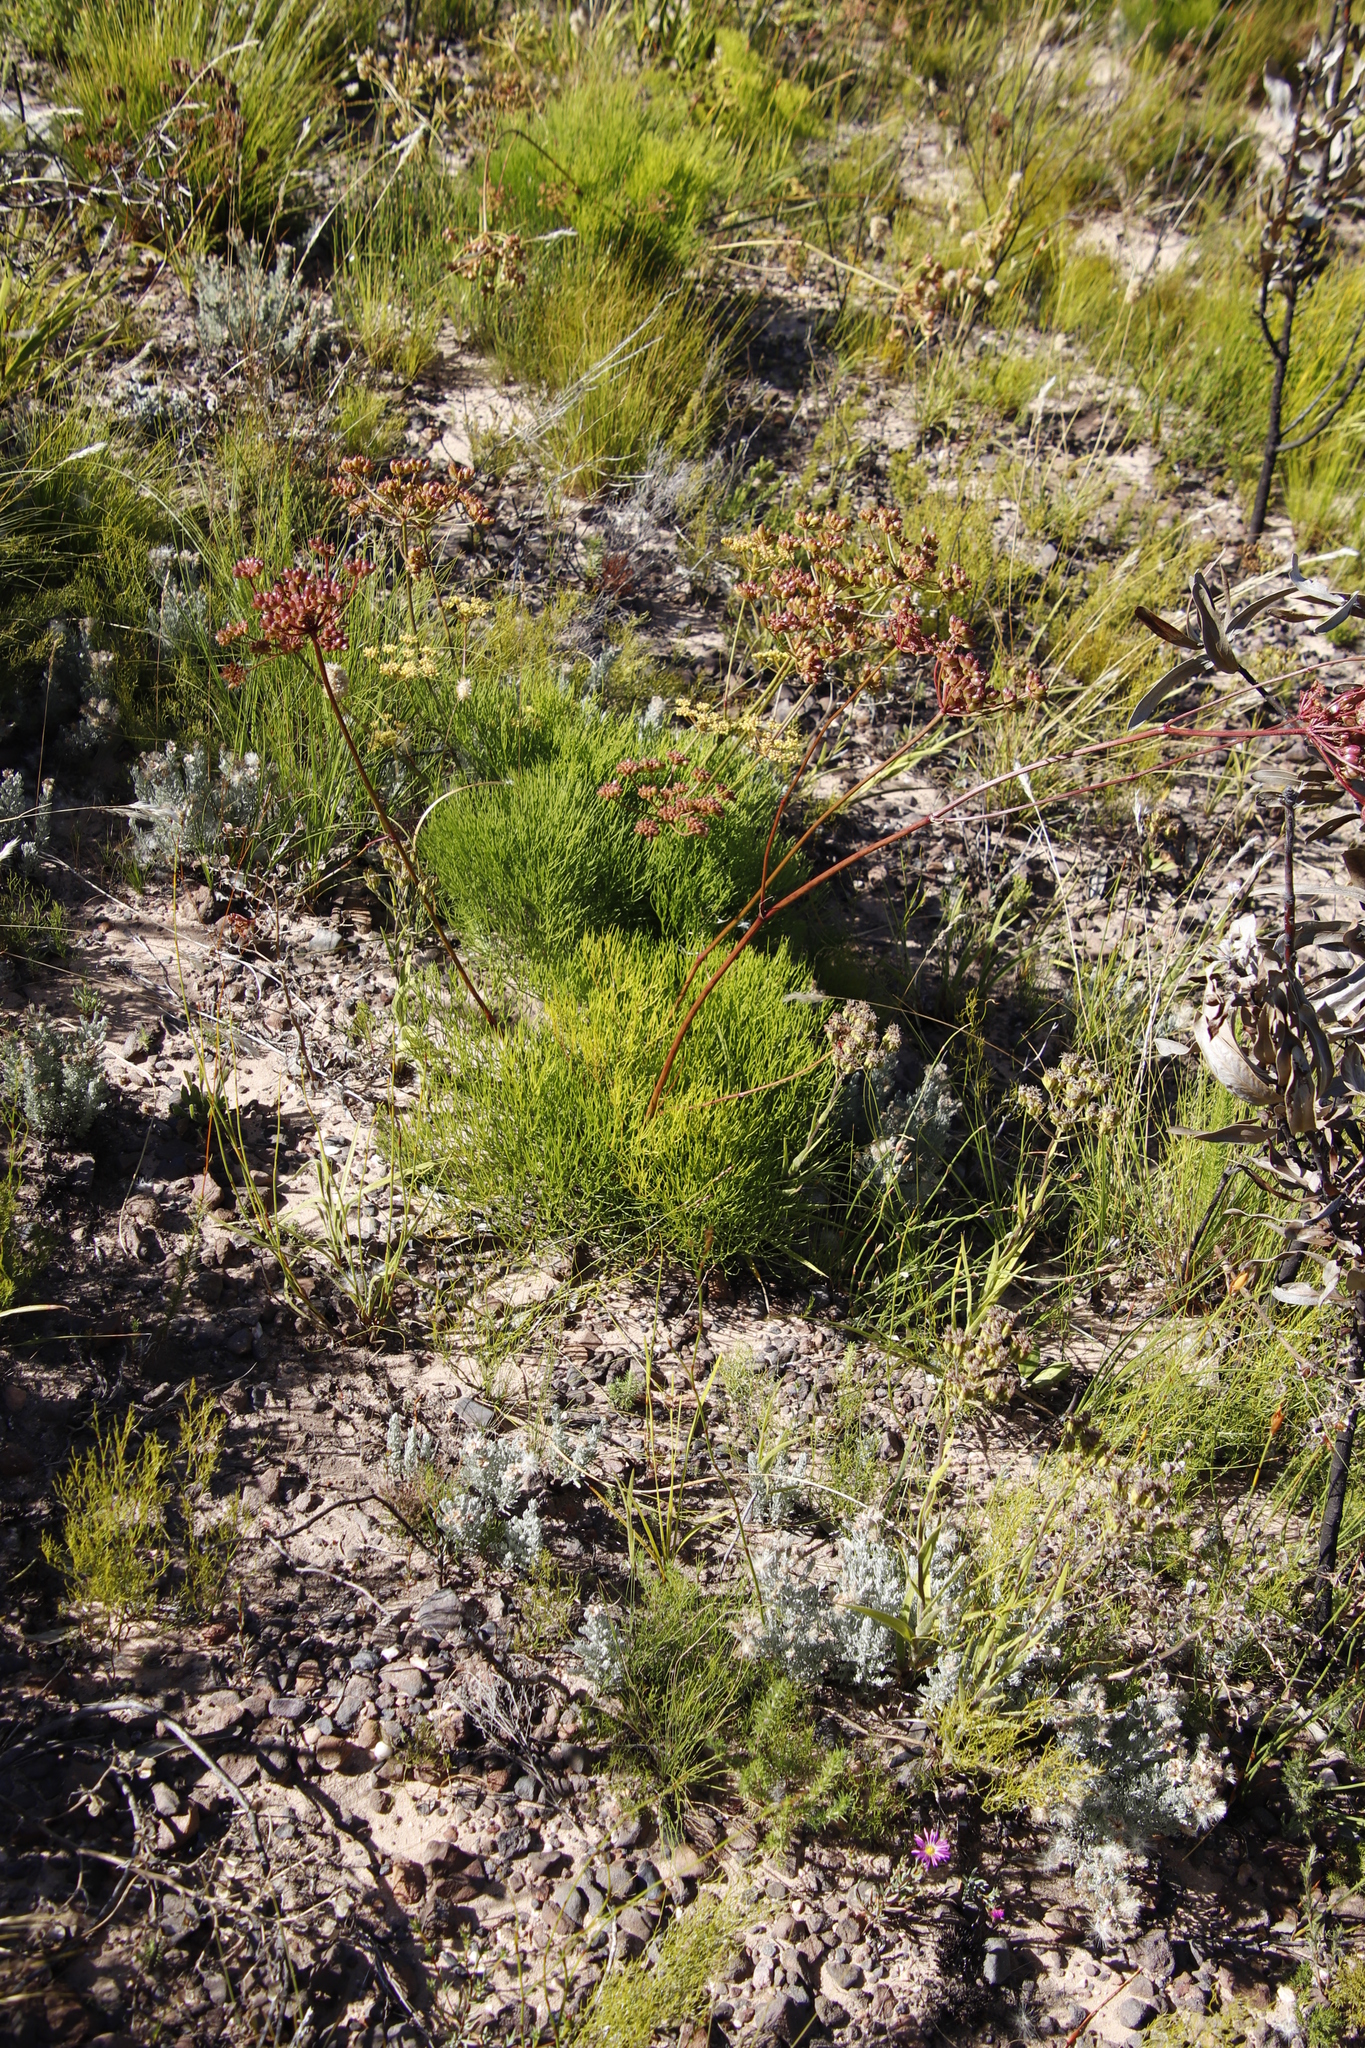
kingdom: Plantae
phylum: Tracheophyta
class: Magnoliopsida
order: Apiales
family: Apiaceae
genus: Nanobubon
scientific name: Nanobubon strictum
